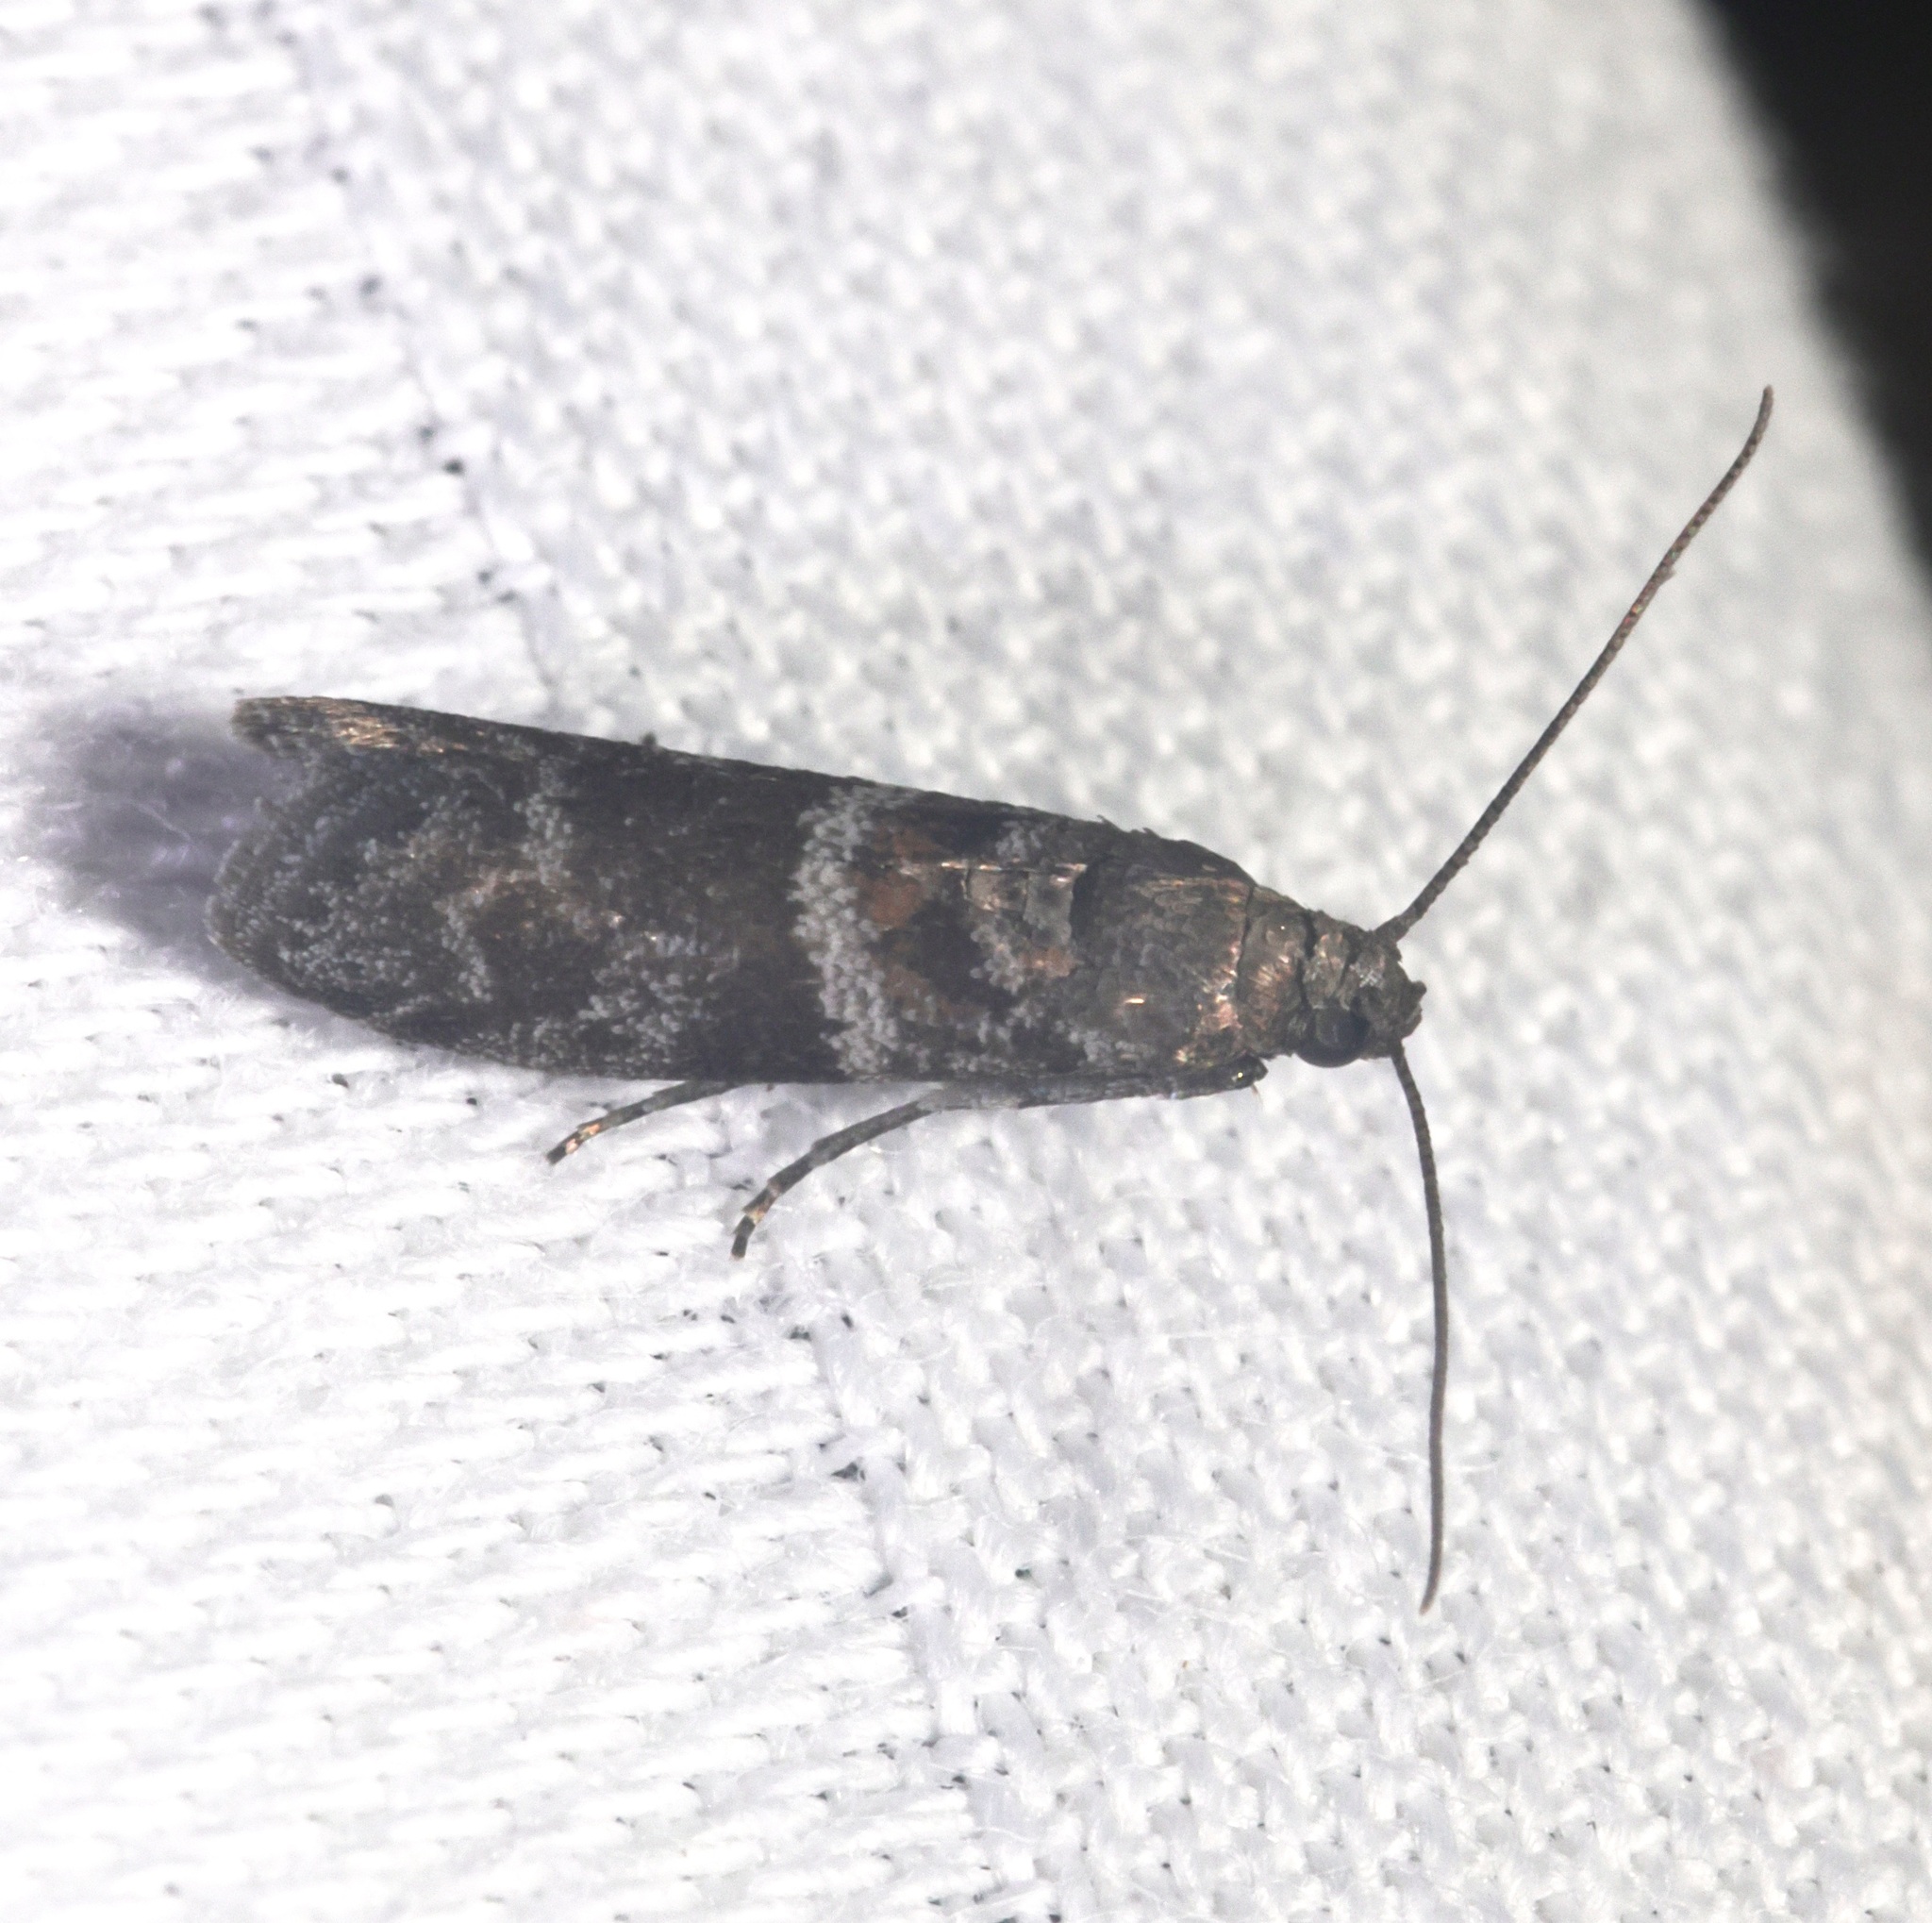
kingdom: Animalia
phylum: Arthropoda
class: Insecta
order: Lepidoptera
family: Pyralidae
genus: Sacculocornutia
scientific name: Sacculocornutia monotonella
